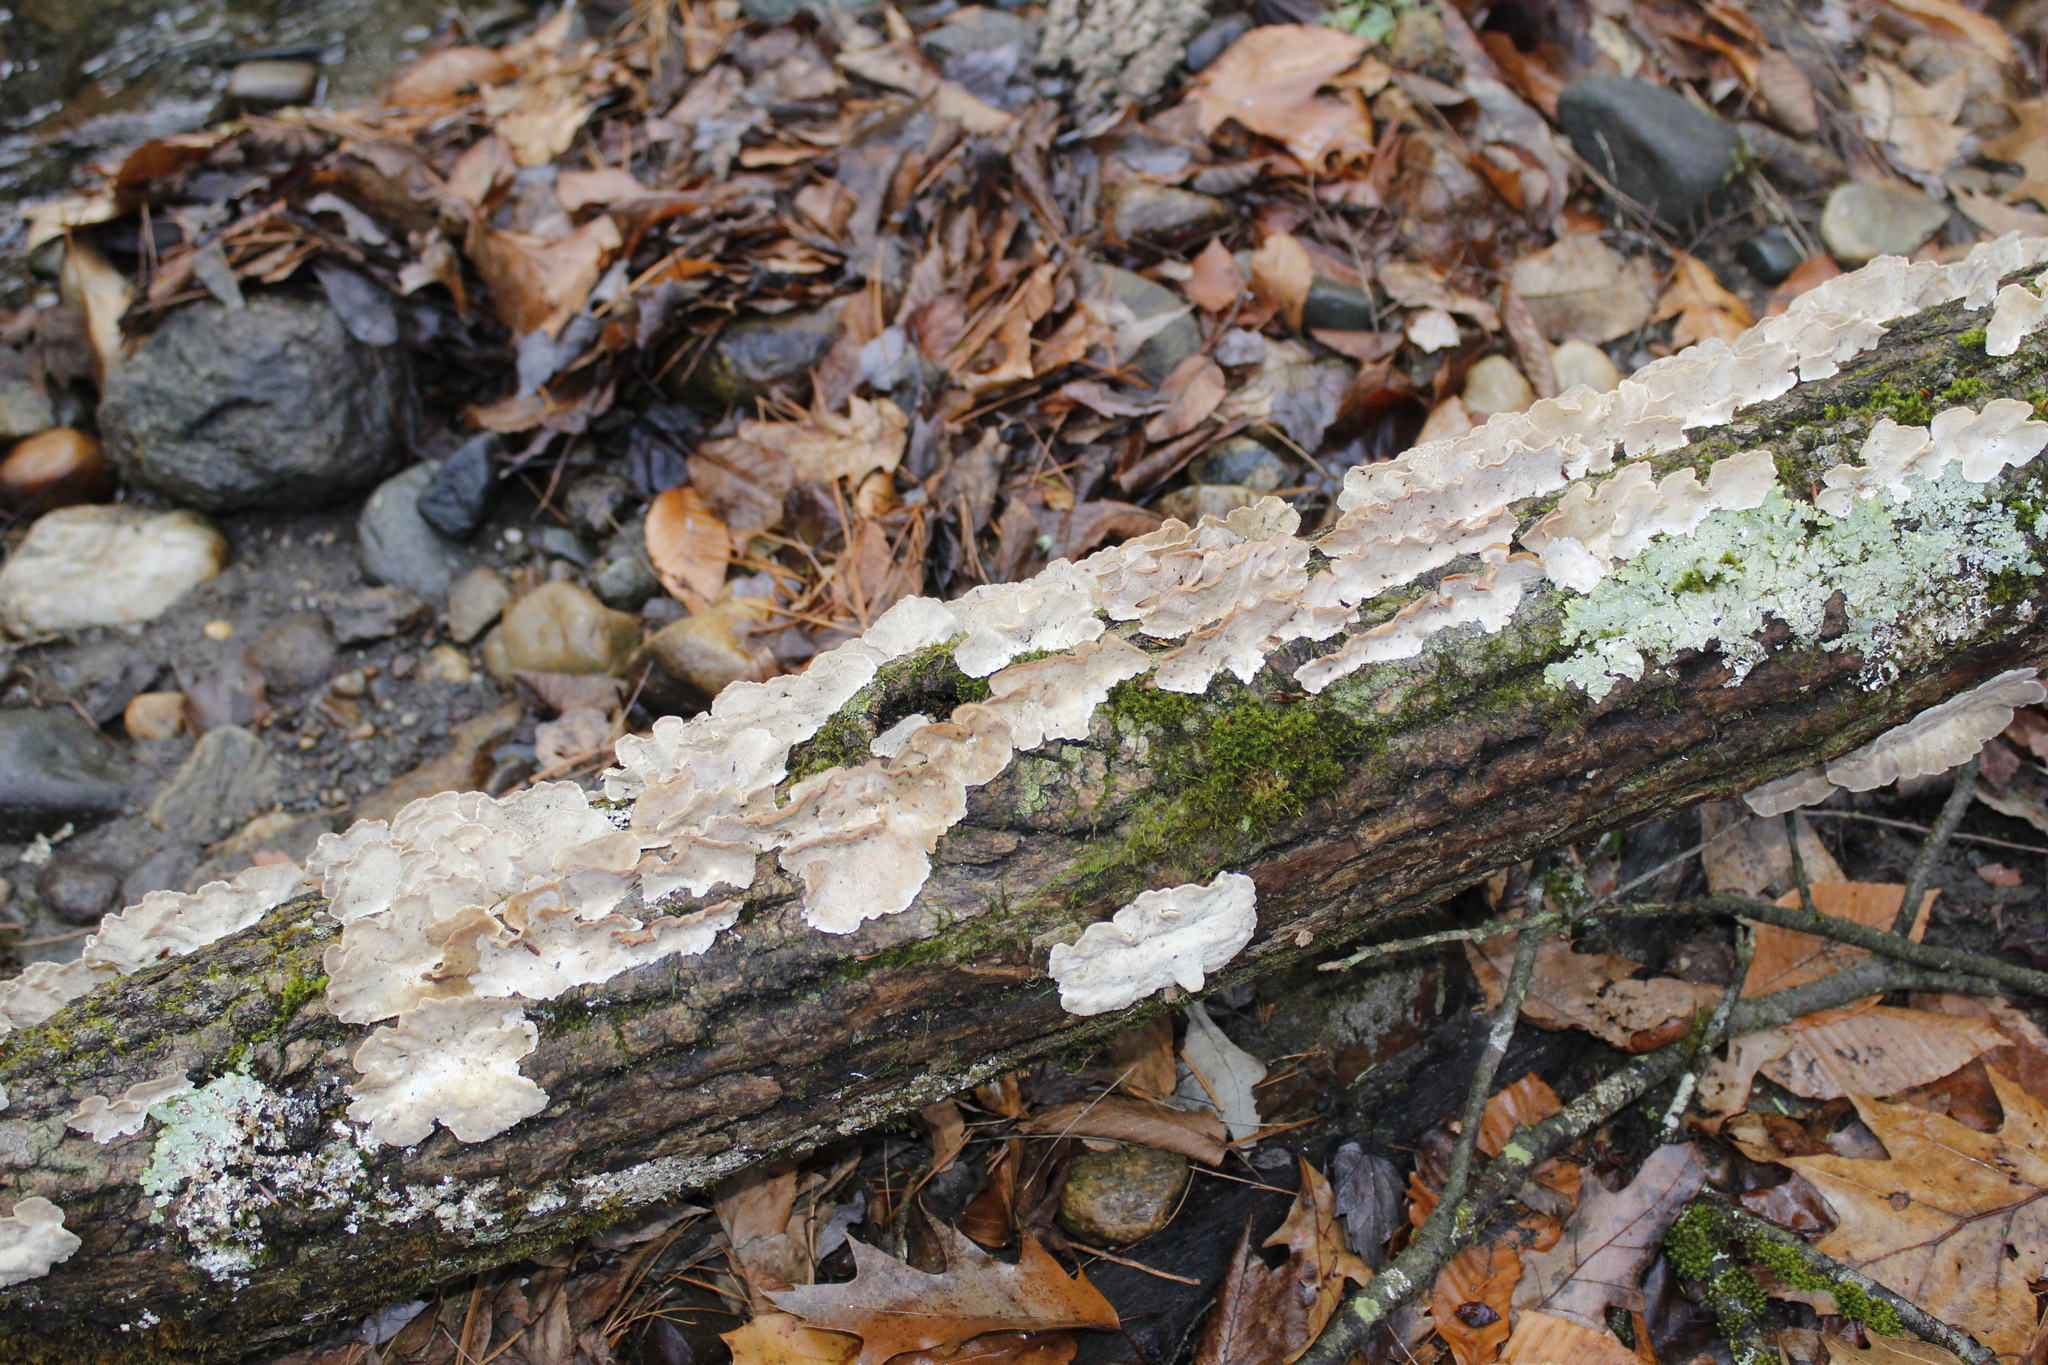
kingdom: Fungi
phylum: Basidiomycota
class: Agaricomycetes
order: Polyporales
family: Polyporaceae
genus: Trametes
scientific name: Trametes versicolor
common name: Turkeytail
